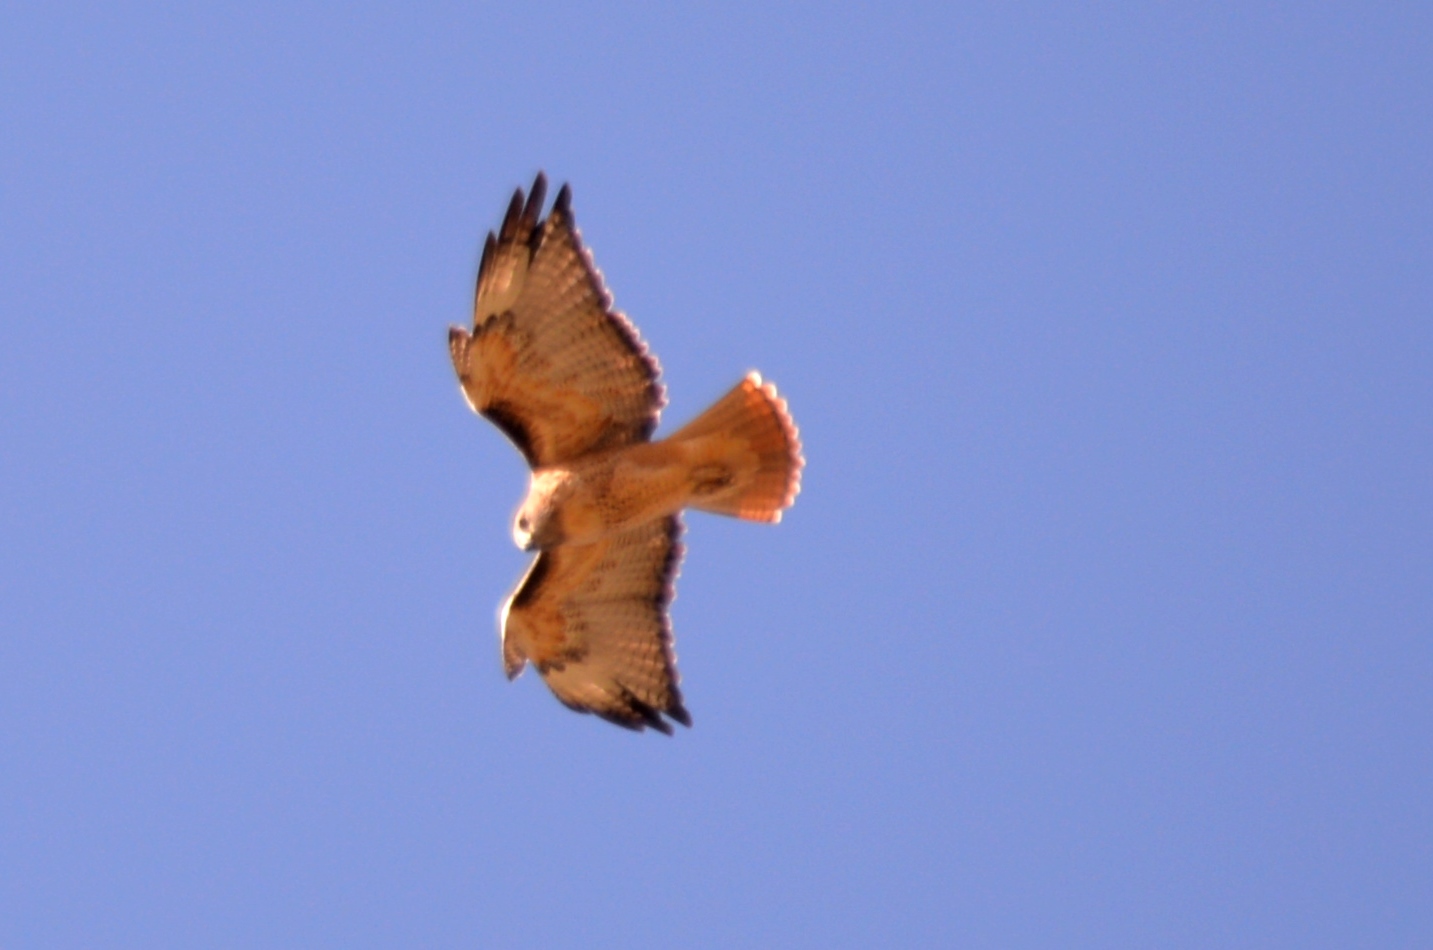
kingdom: Animalia
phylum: Chordata
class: Aves
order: Accipitriformes
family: Accipitridae
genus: Buteo
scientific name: Buteo jamaicensis
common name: Red-tailed hawk
